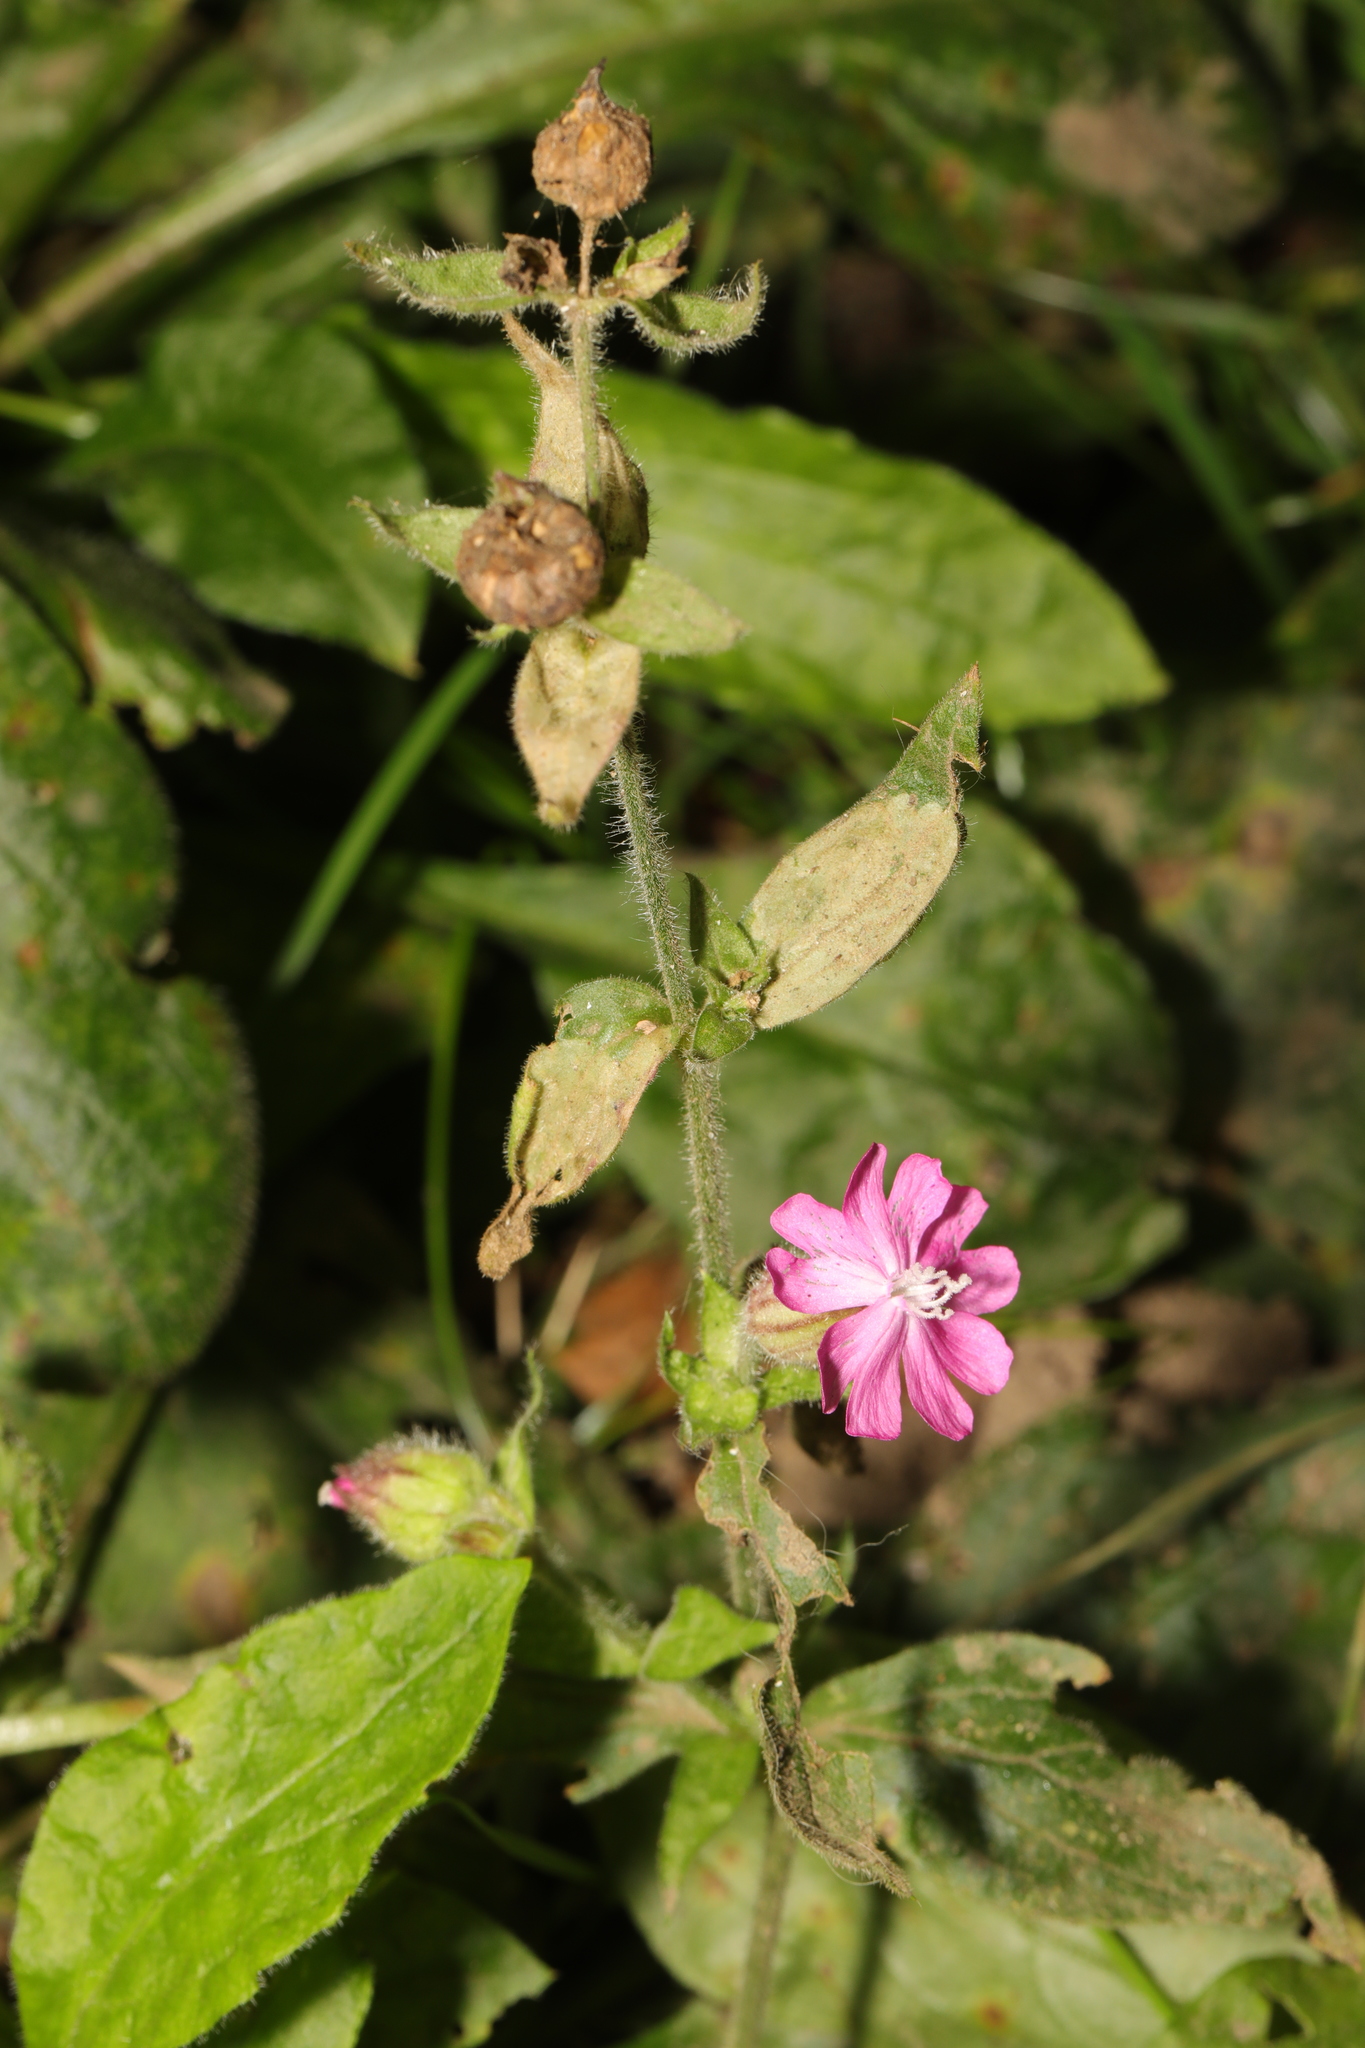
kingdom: Plantae
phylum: Tracheophyta
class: Magnoliopsida
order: Caryophyllales
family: Caryophyllaceae
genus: Silene
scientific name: Silene dioica
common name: Red campion
